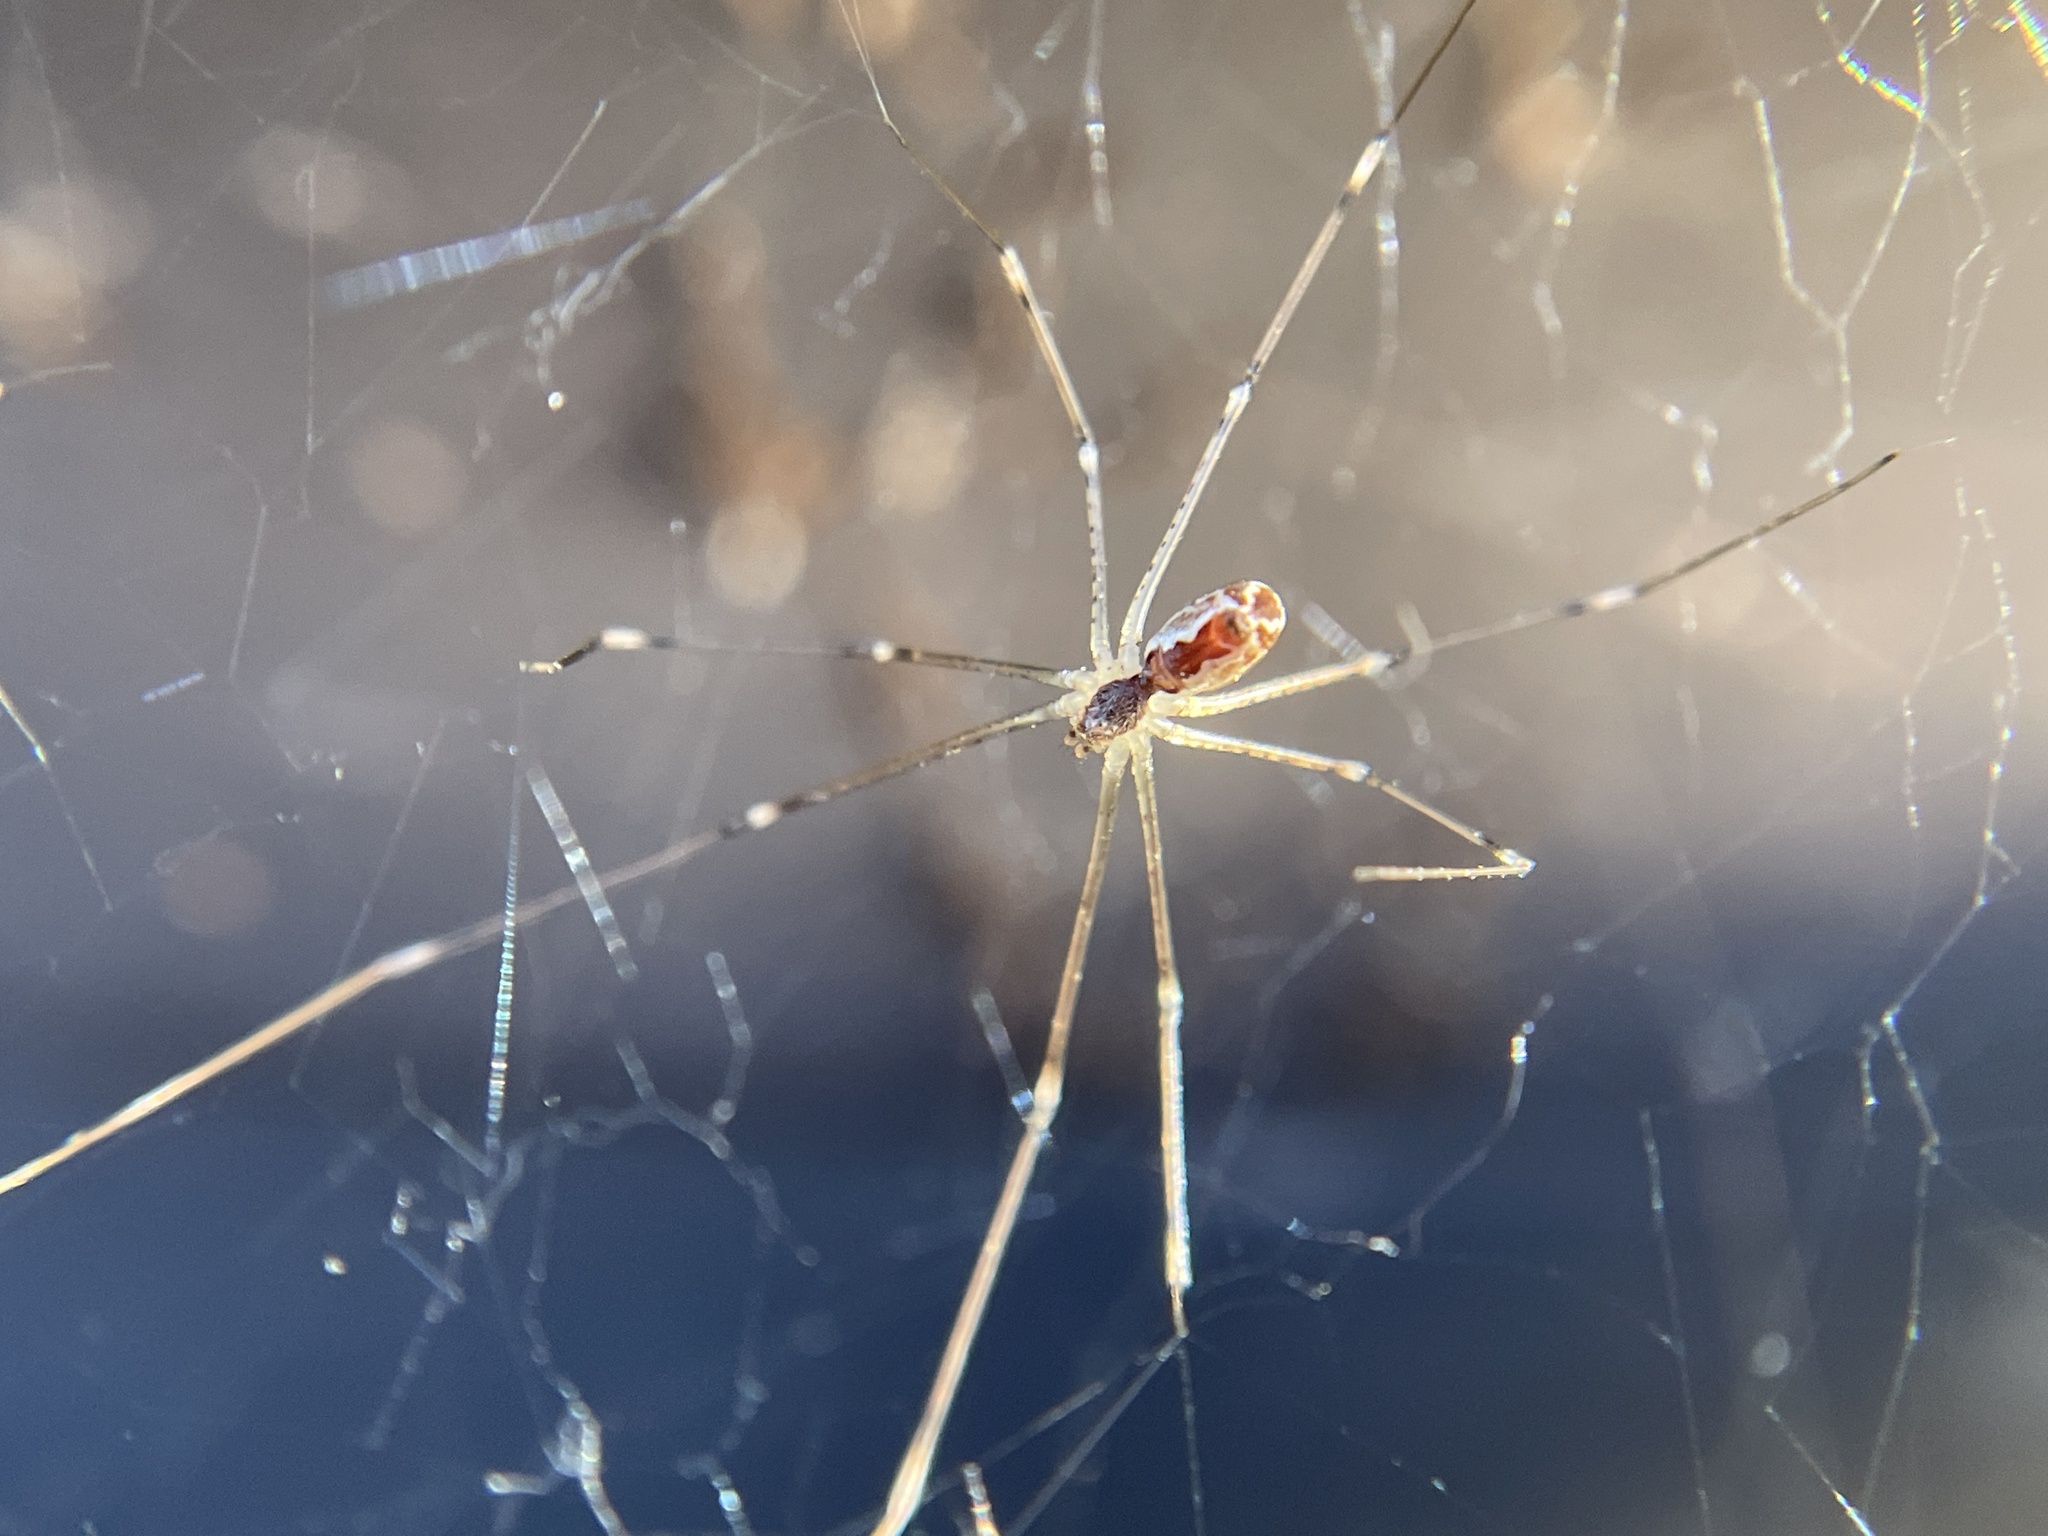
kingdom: Animalia
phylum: Arthropoda
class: Arachnida
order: Araneae
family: Pholcidae
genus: Holocnemus
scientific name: Holocnemus pluchei
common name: Marbled cellar spider
